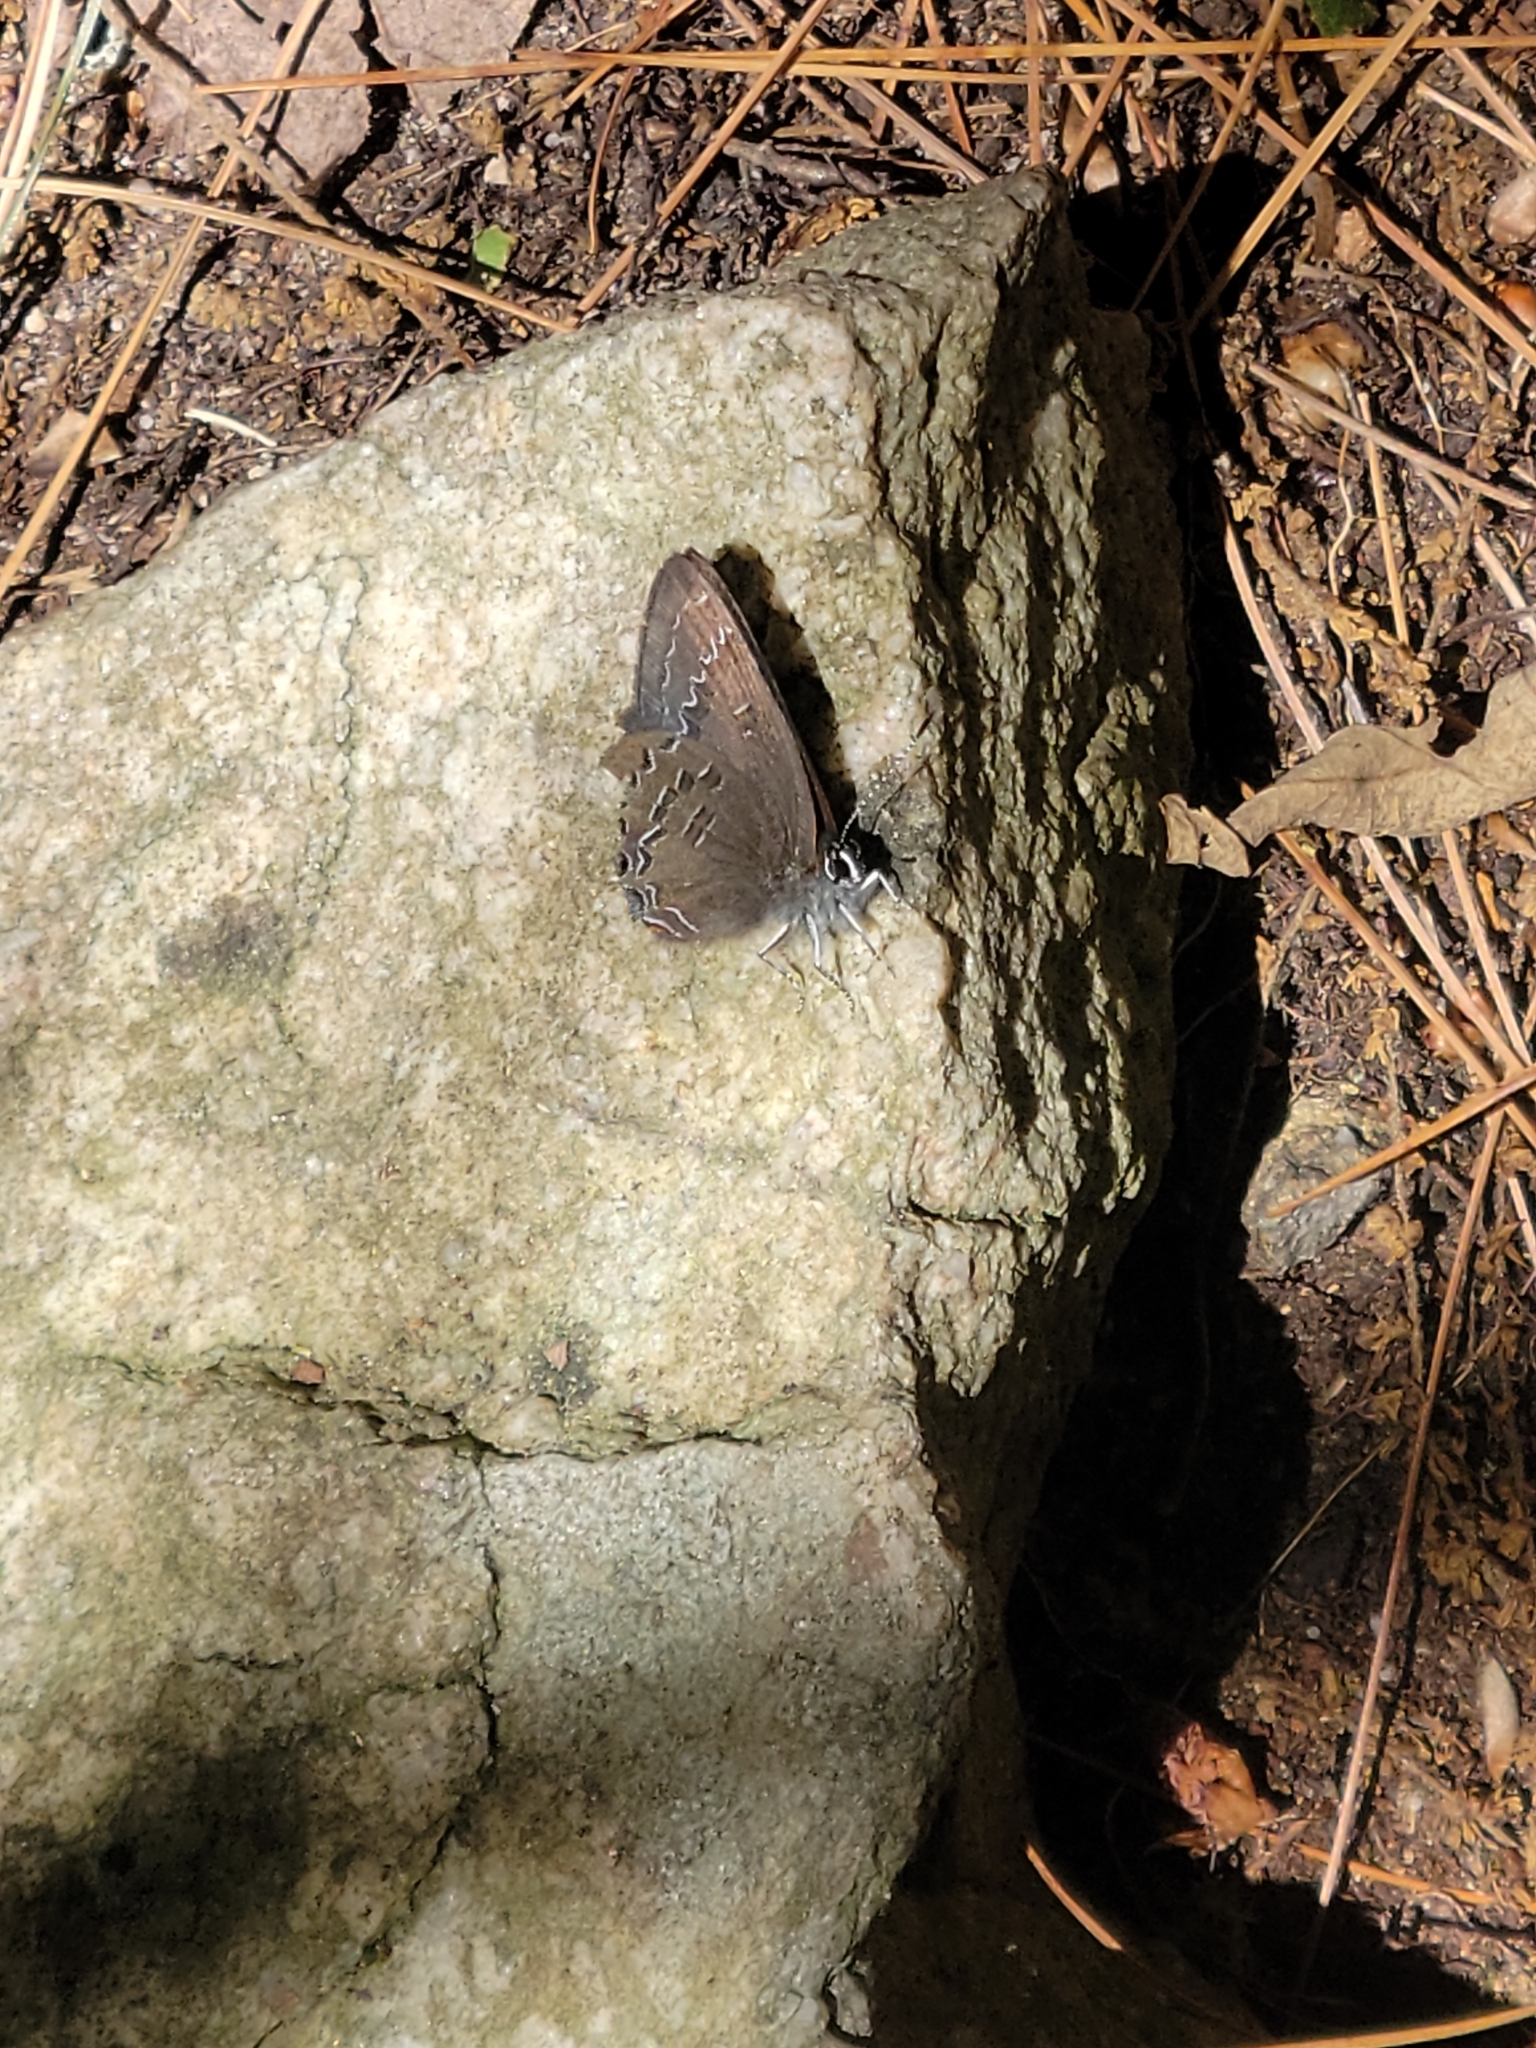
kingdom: Animalia
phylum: Arthropoda
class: Insecta
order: Lepidoptera
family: Lycaenidae
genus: Satyrium
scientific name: Satyrium calanus
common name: Banded hairstreak
